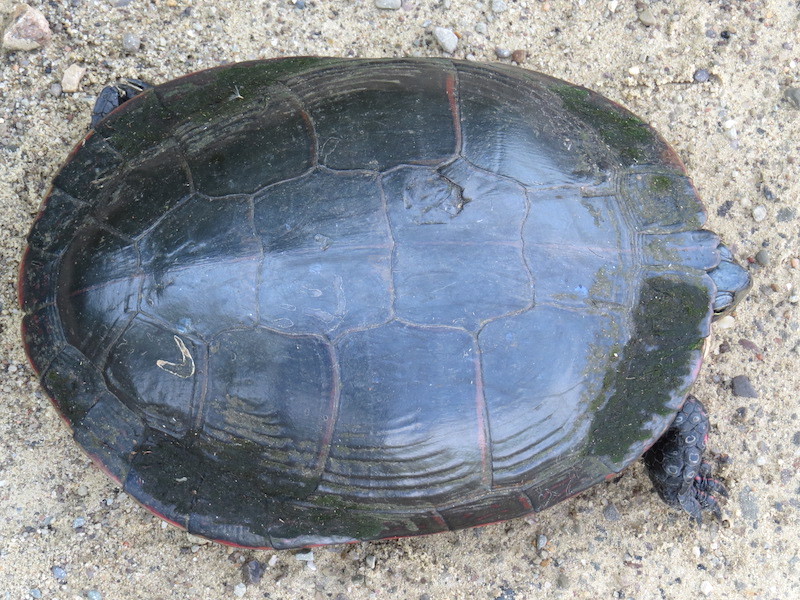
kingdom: Animalia
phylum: Chordata
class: Testudines
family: Emydidae
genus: Chrysemys
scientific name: Chrysemys picta
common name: Painted turtle
